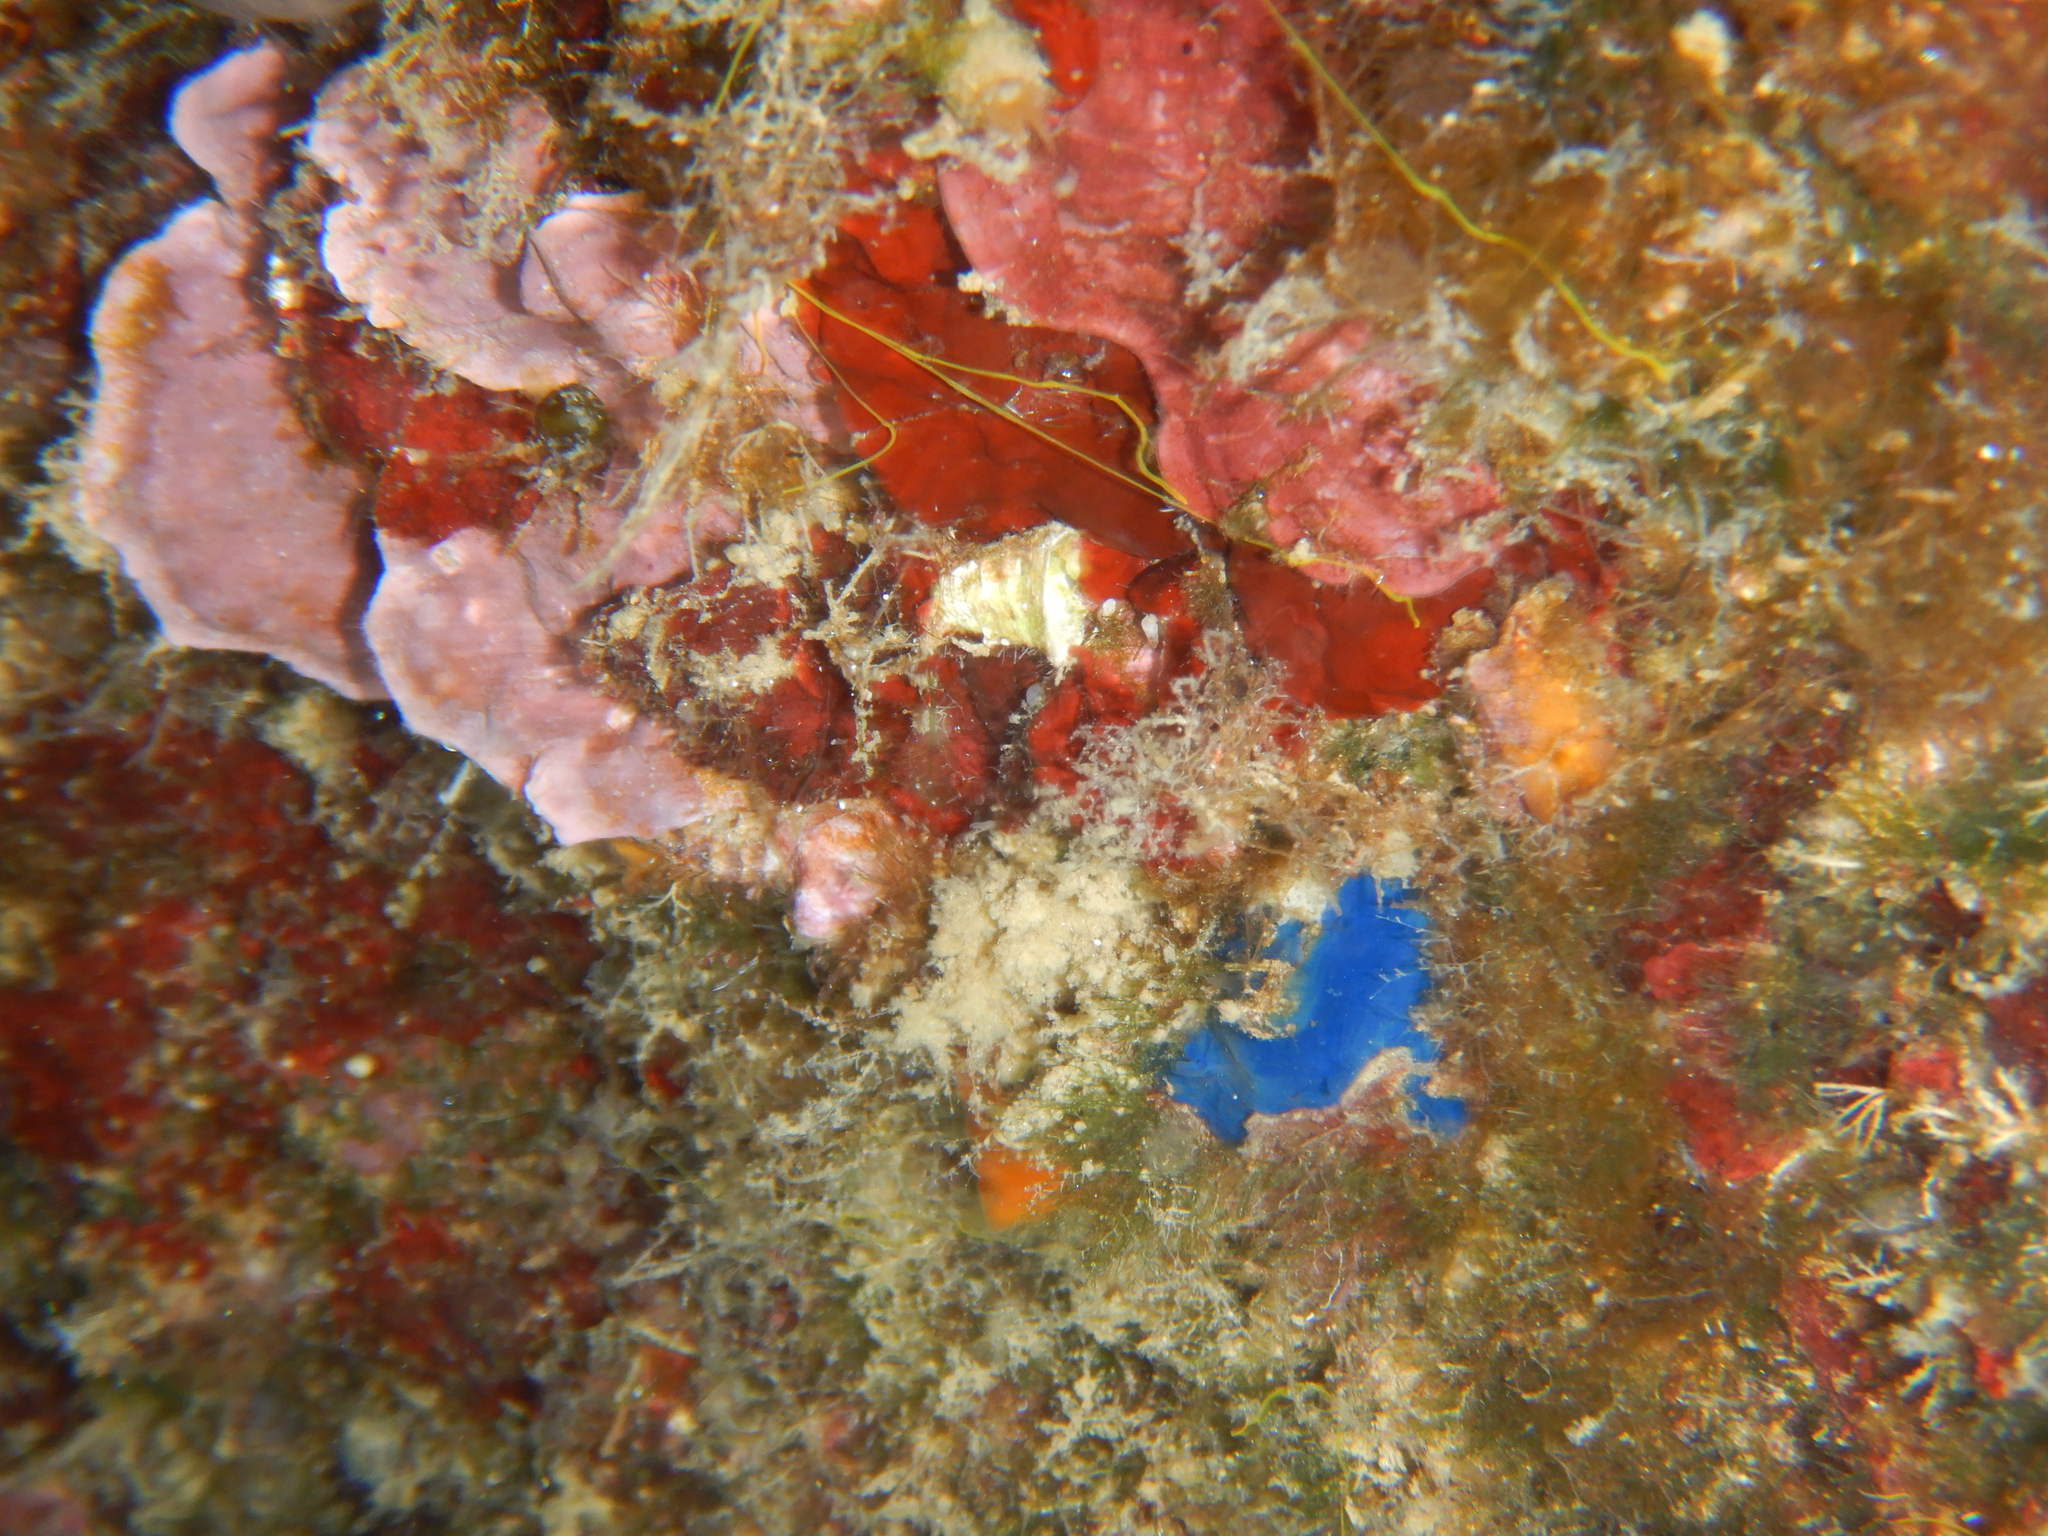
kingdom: Animalia
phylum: Porifera
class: Demospongiae
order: Suberitida
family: Suberitidae
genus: Terpios
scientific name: Terpios gelatinosus
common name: Blue encrusting sponge
